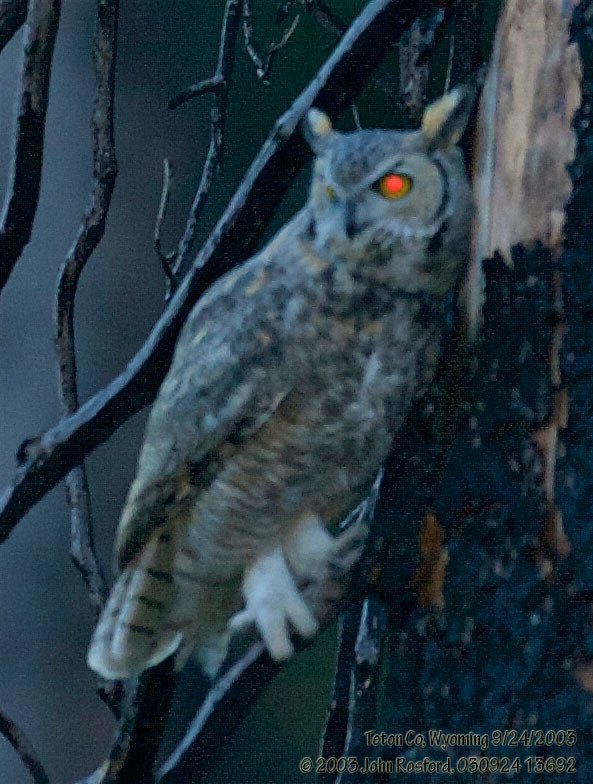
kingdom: Animalia
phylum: Chordata
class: Aves
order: Strigiformes
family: Strigidae
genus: Bubo
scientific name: Bubo virginianus
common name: Great horned owl
